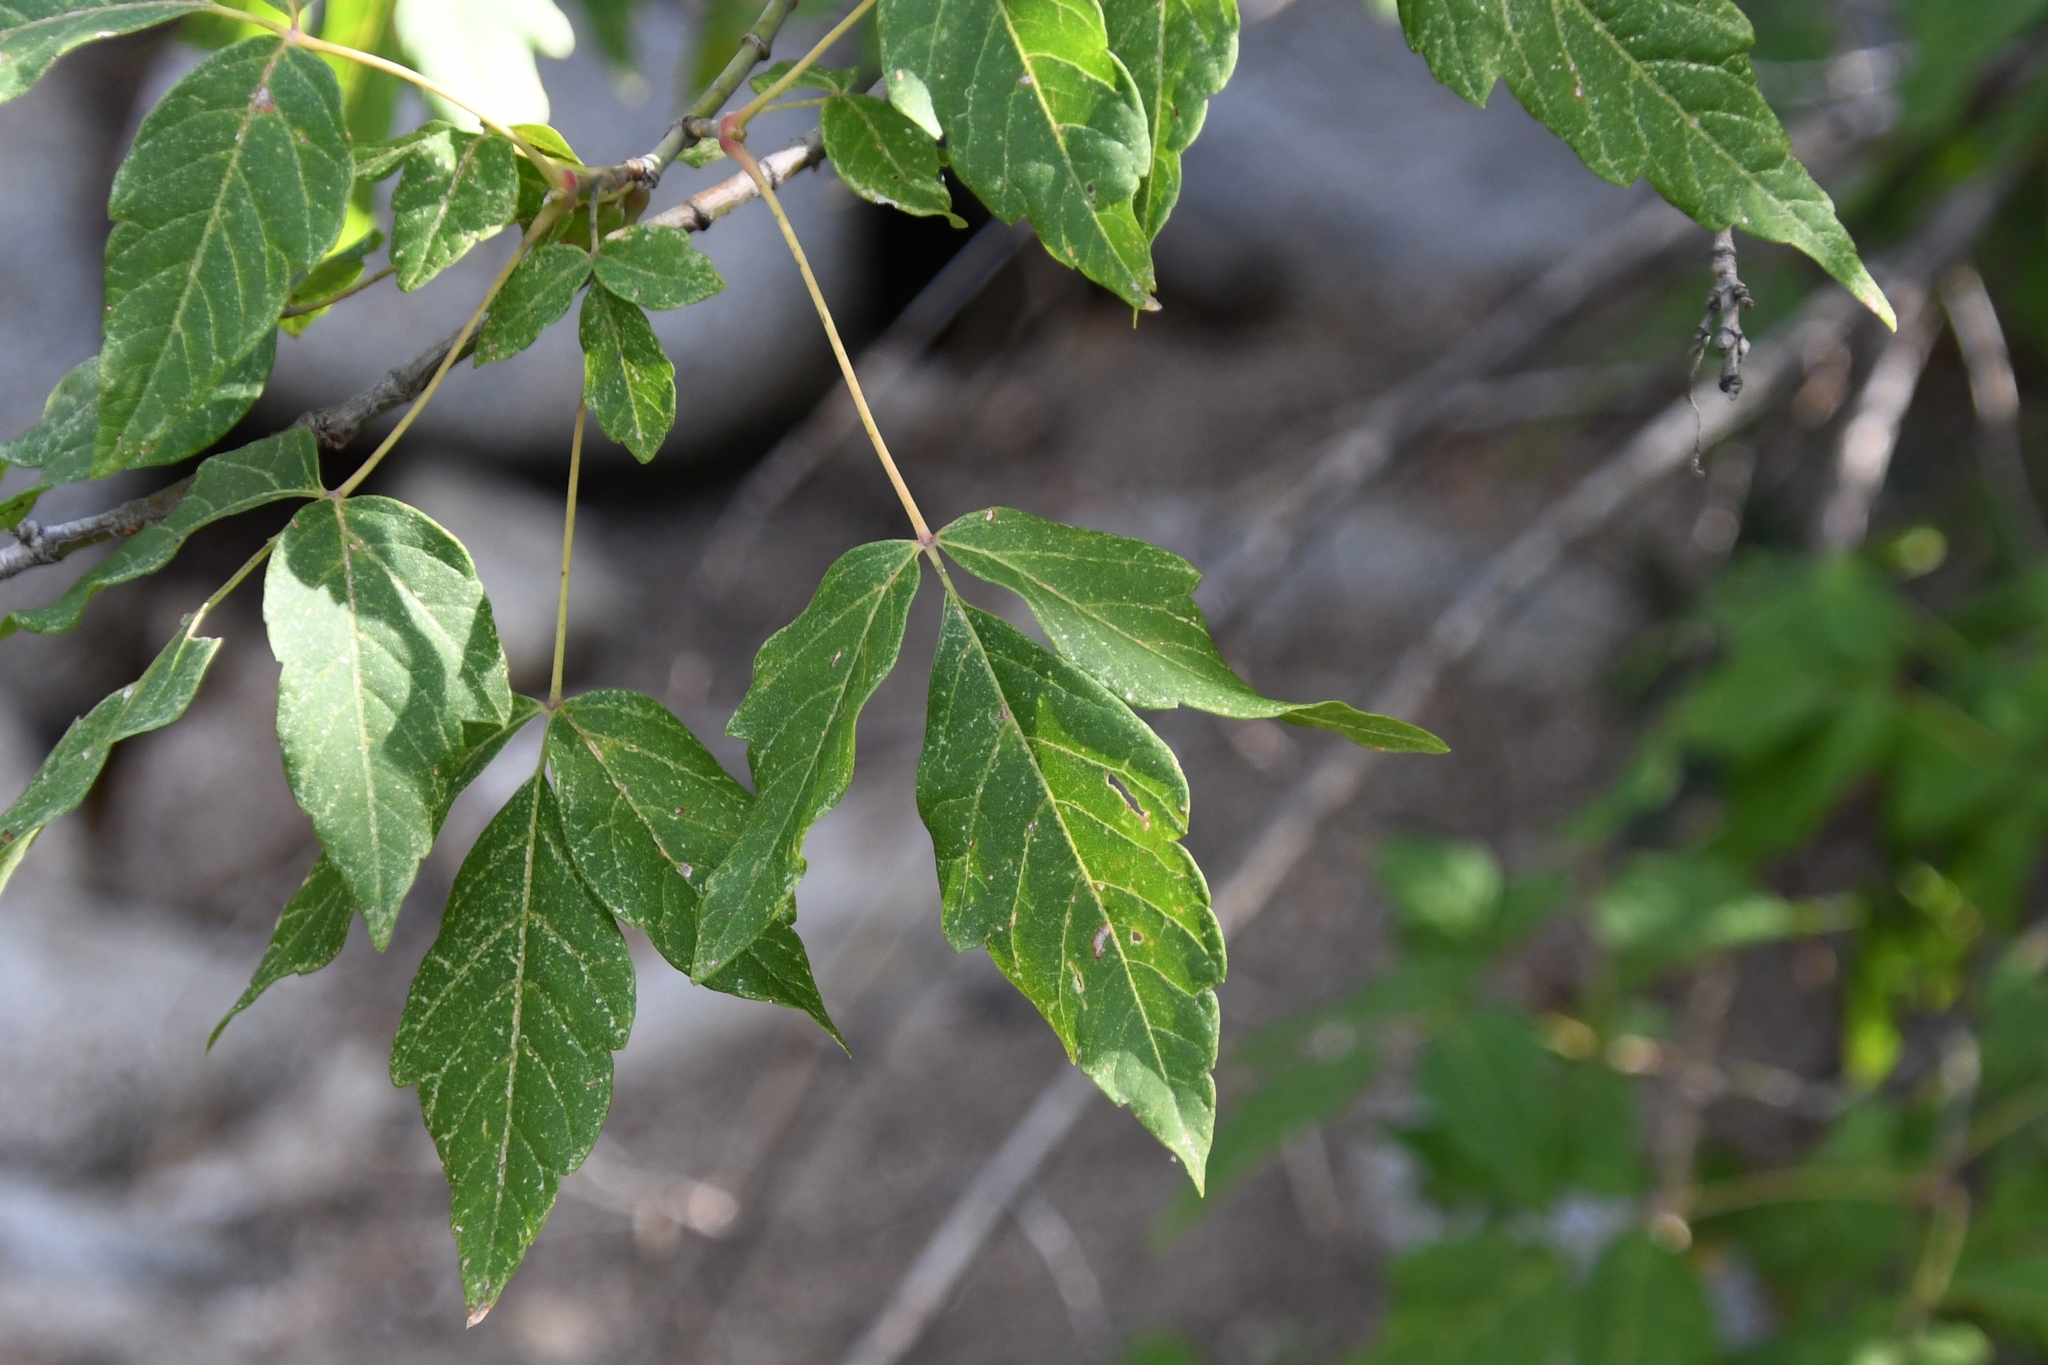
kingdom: Plantae
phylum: Tracheophyta
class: Magnoliopsida
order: Sapindales
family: Sapindaceae
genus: Acer
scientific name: Acer negundo
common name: Ashleaf maple
